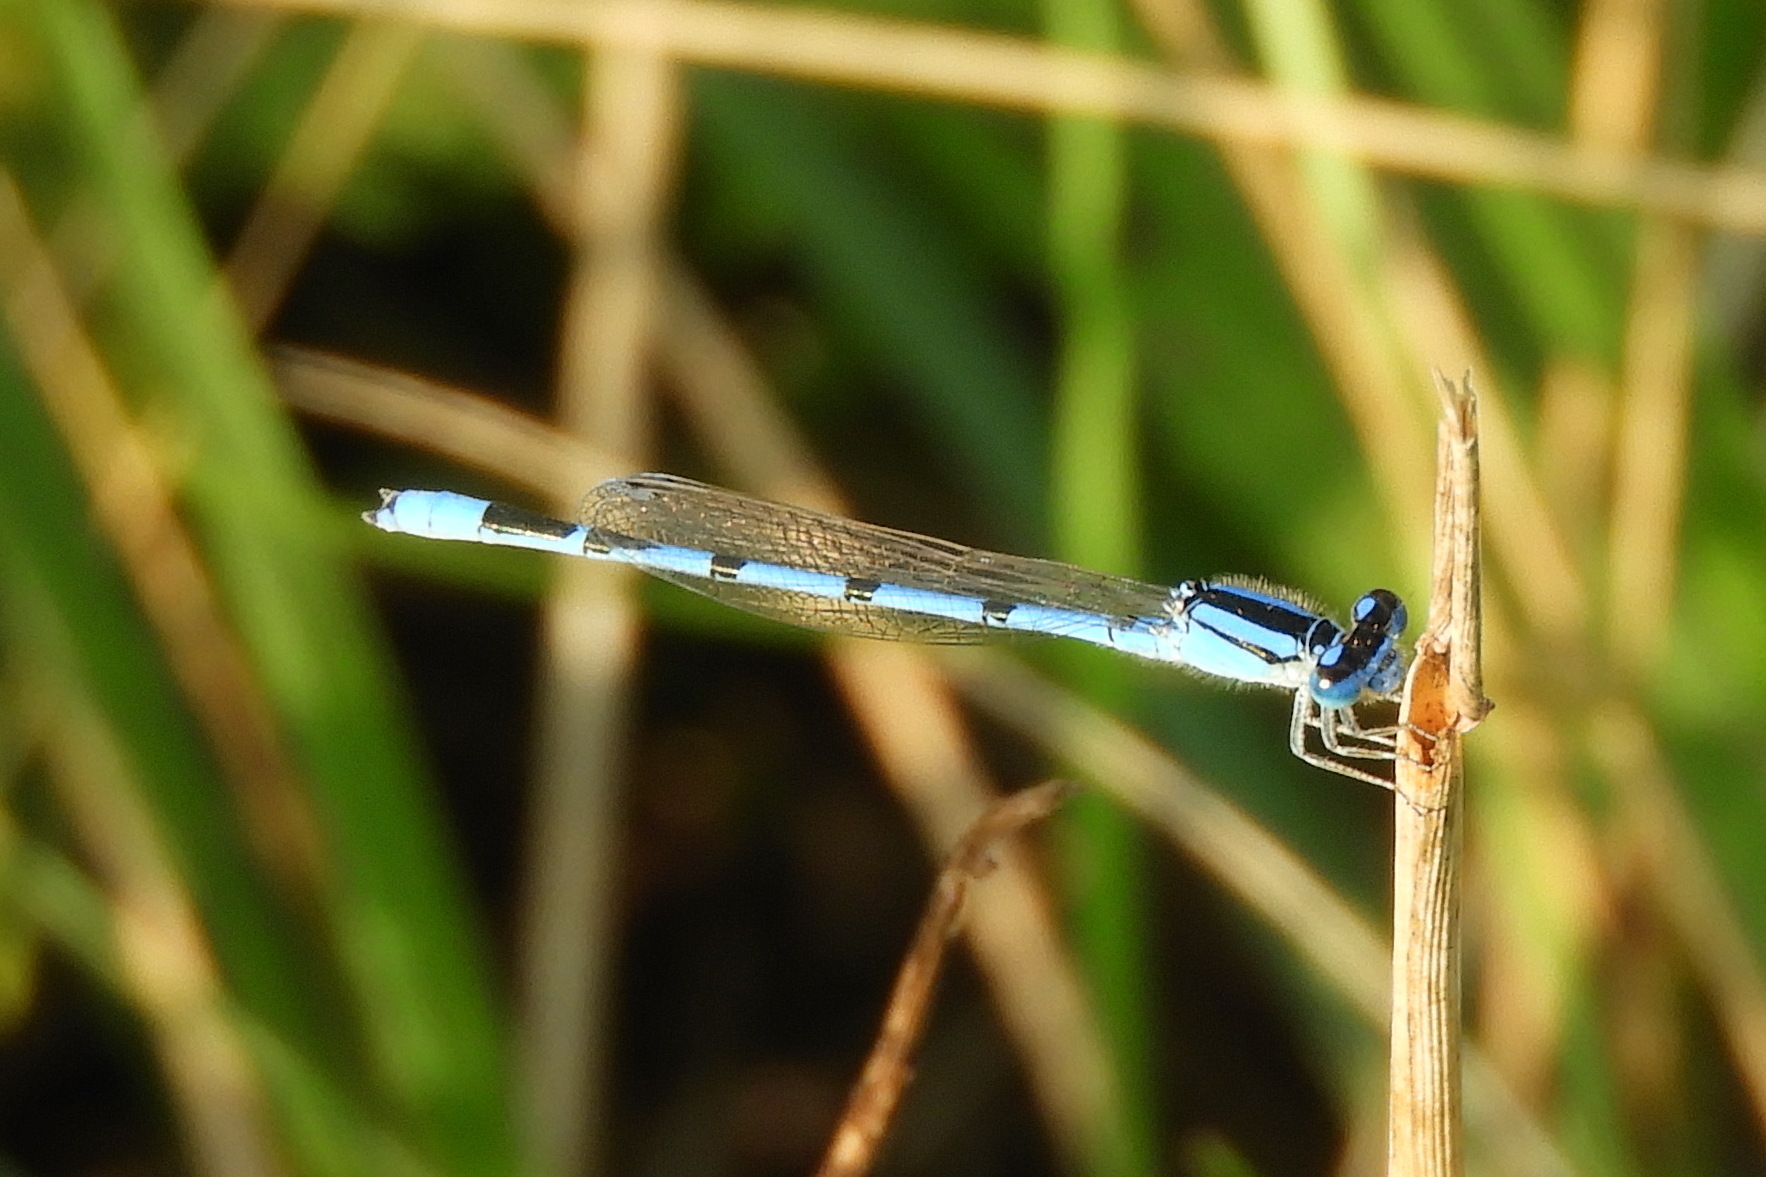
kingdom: Animalia
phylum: Arthropoda
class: Insecta
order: Odonata
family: Coenagrionidae
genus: Enallagma
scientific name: Enallagma civile
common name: Damselfly
